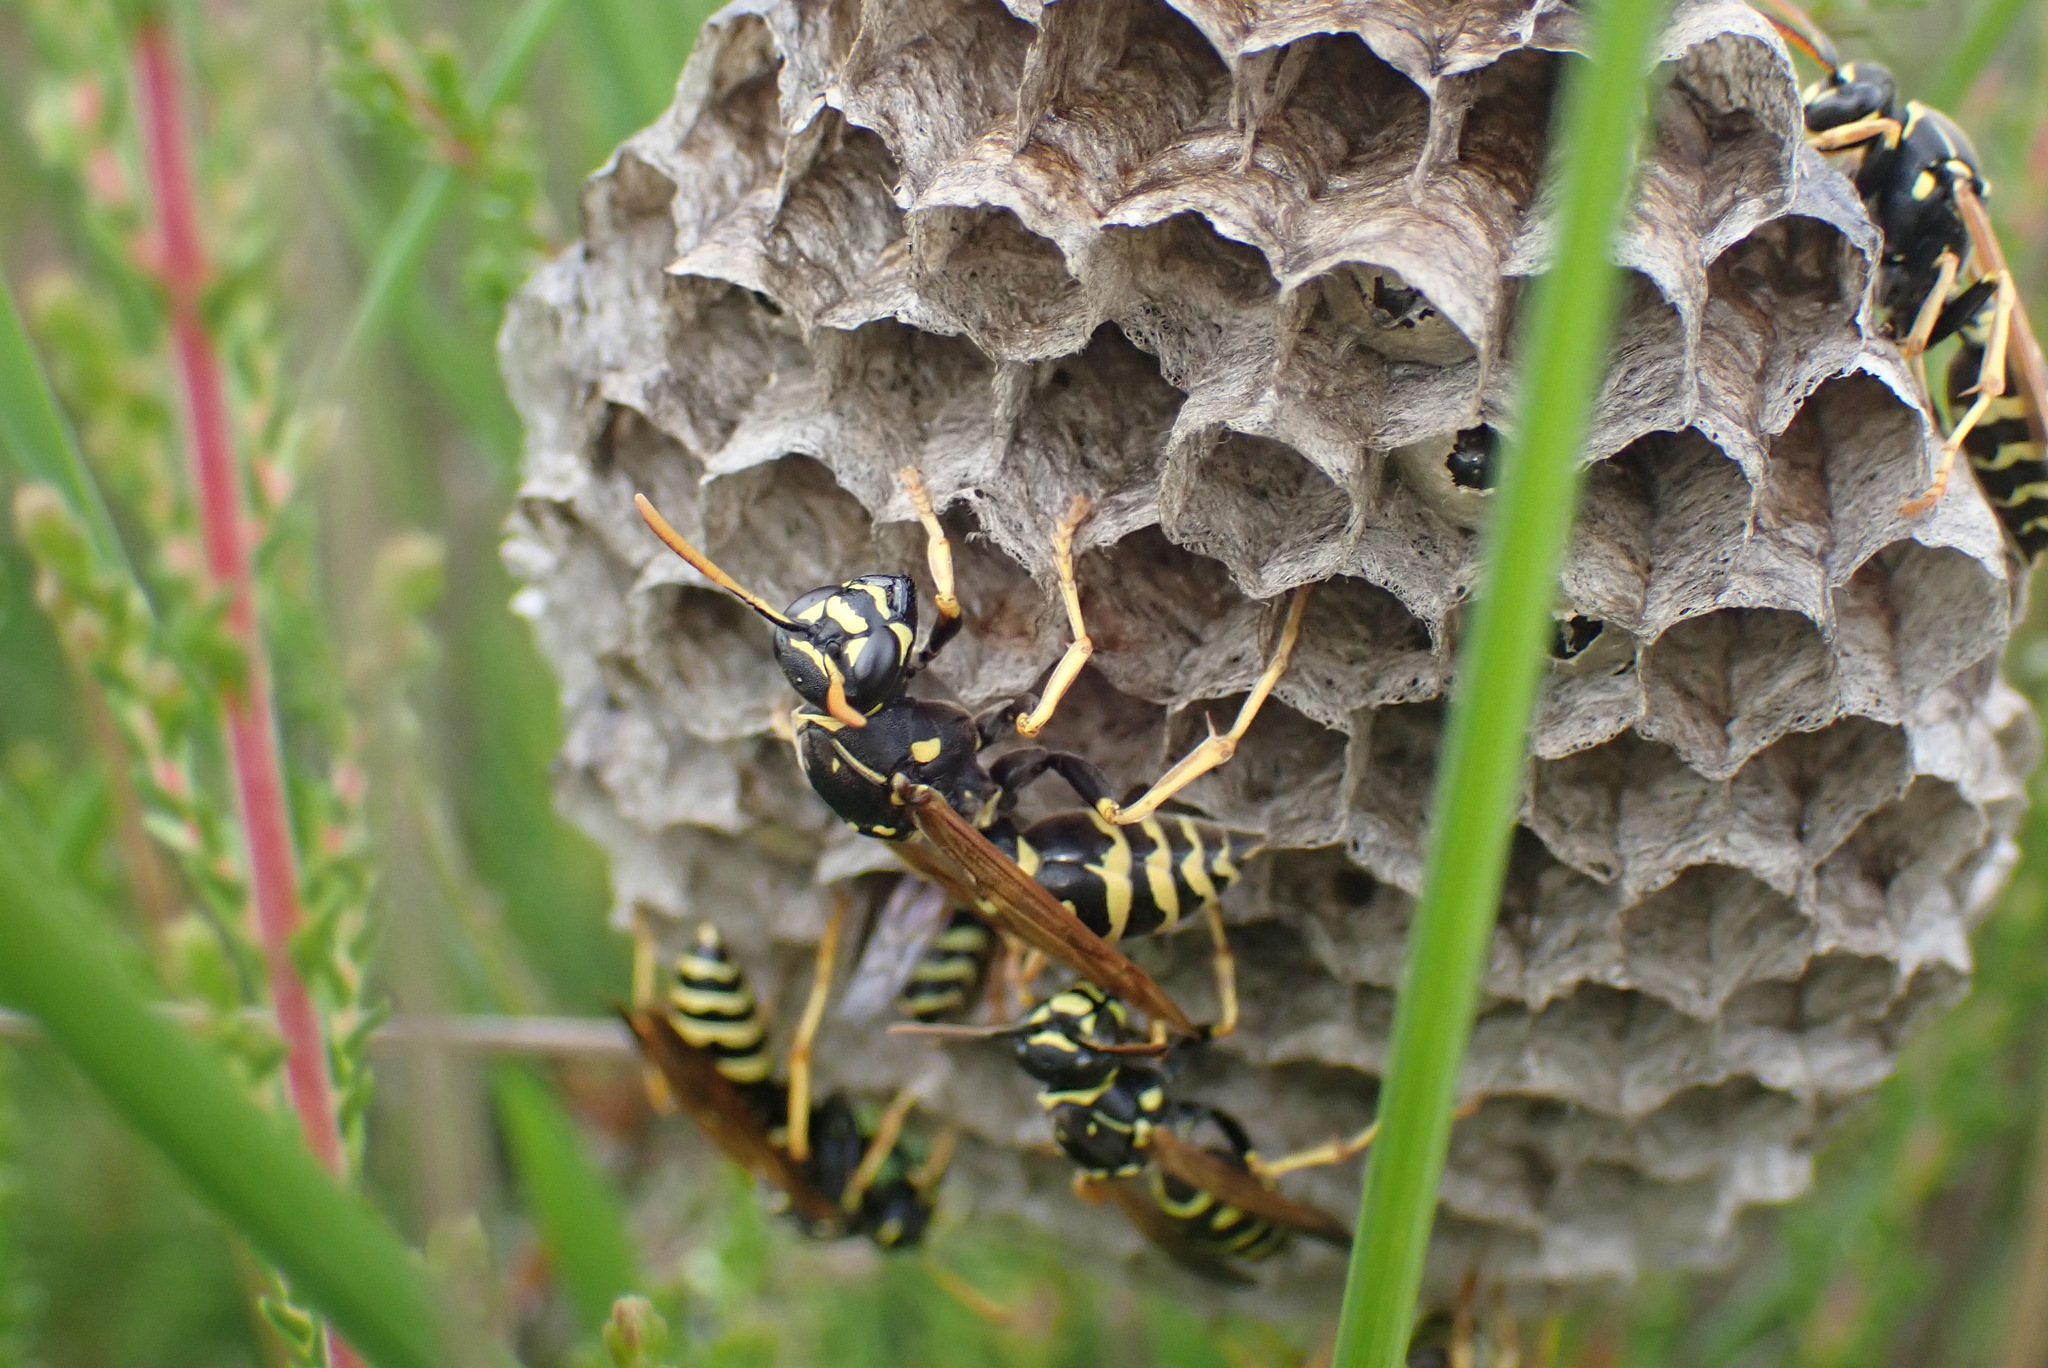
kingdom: Animalia
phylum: Arthropoda
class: Insecta
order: Hymenoptera
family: Eumenidae
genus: Polistes
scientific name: Polistes nimpha
